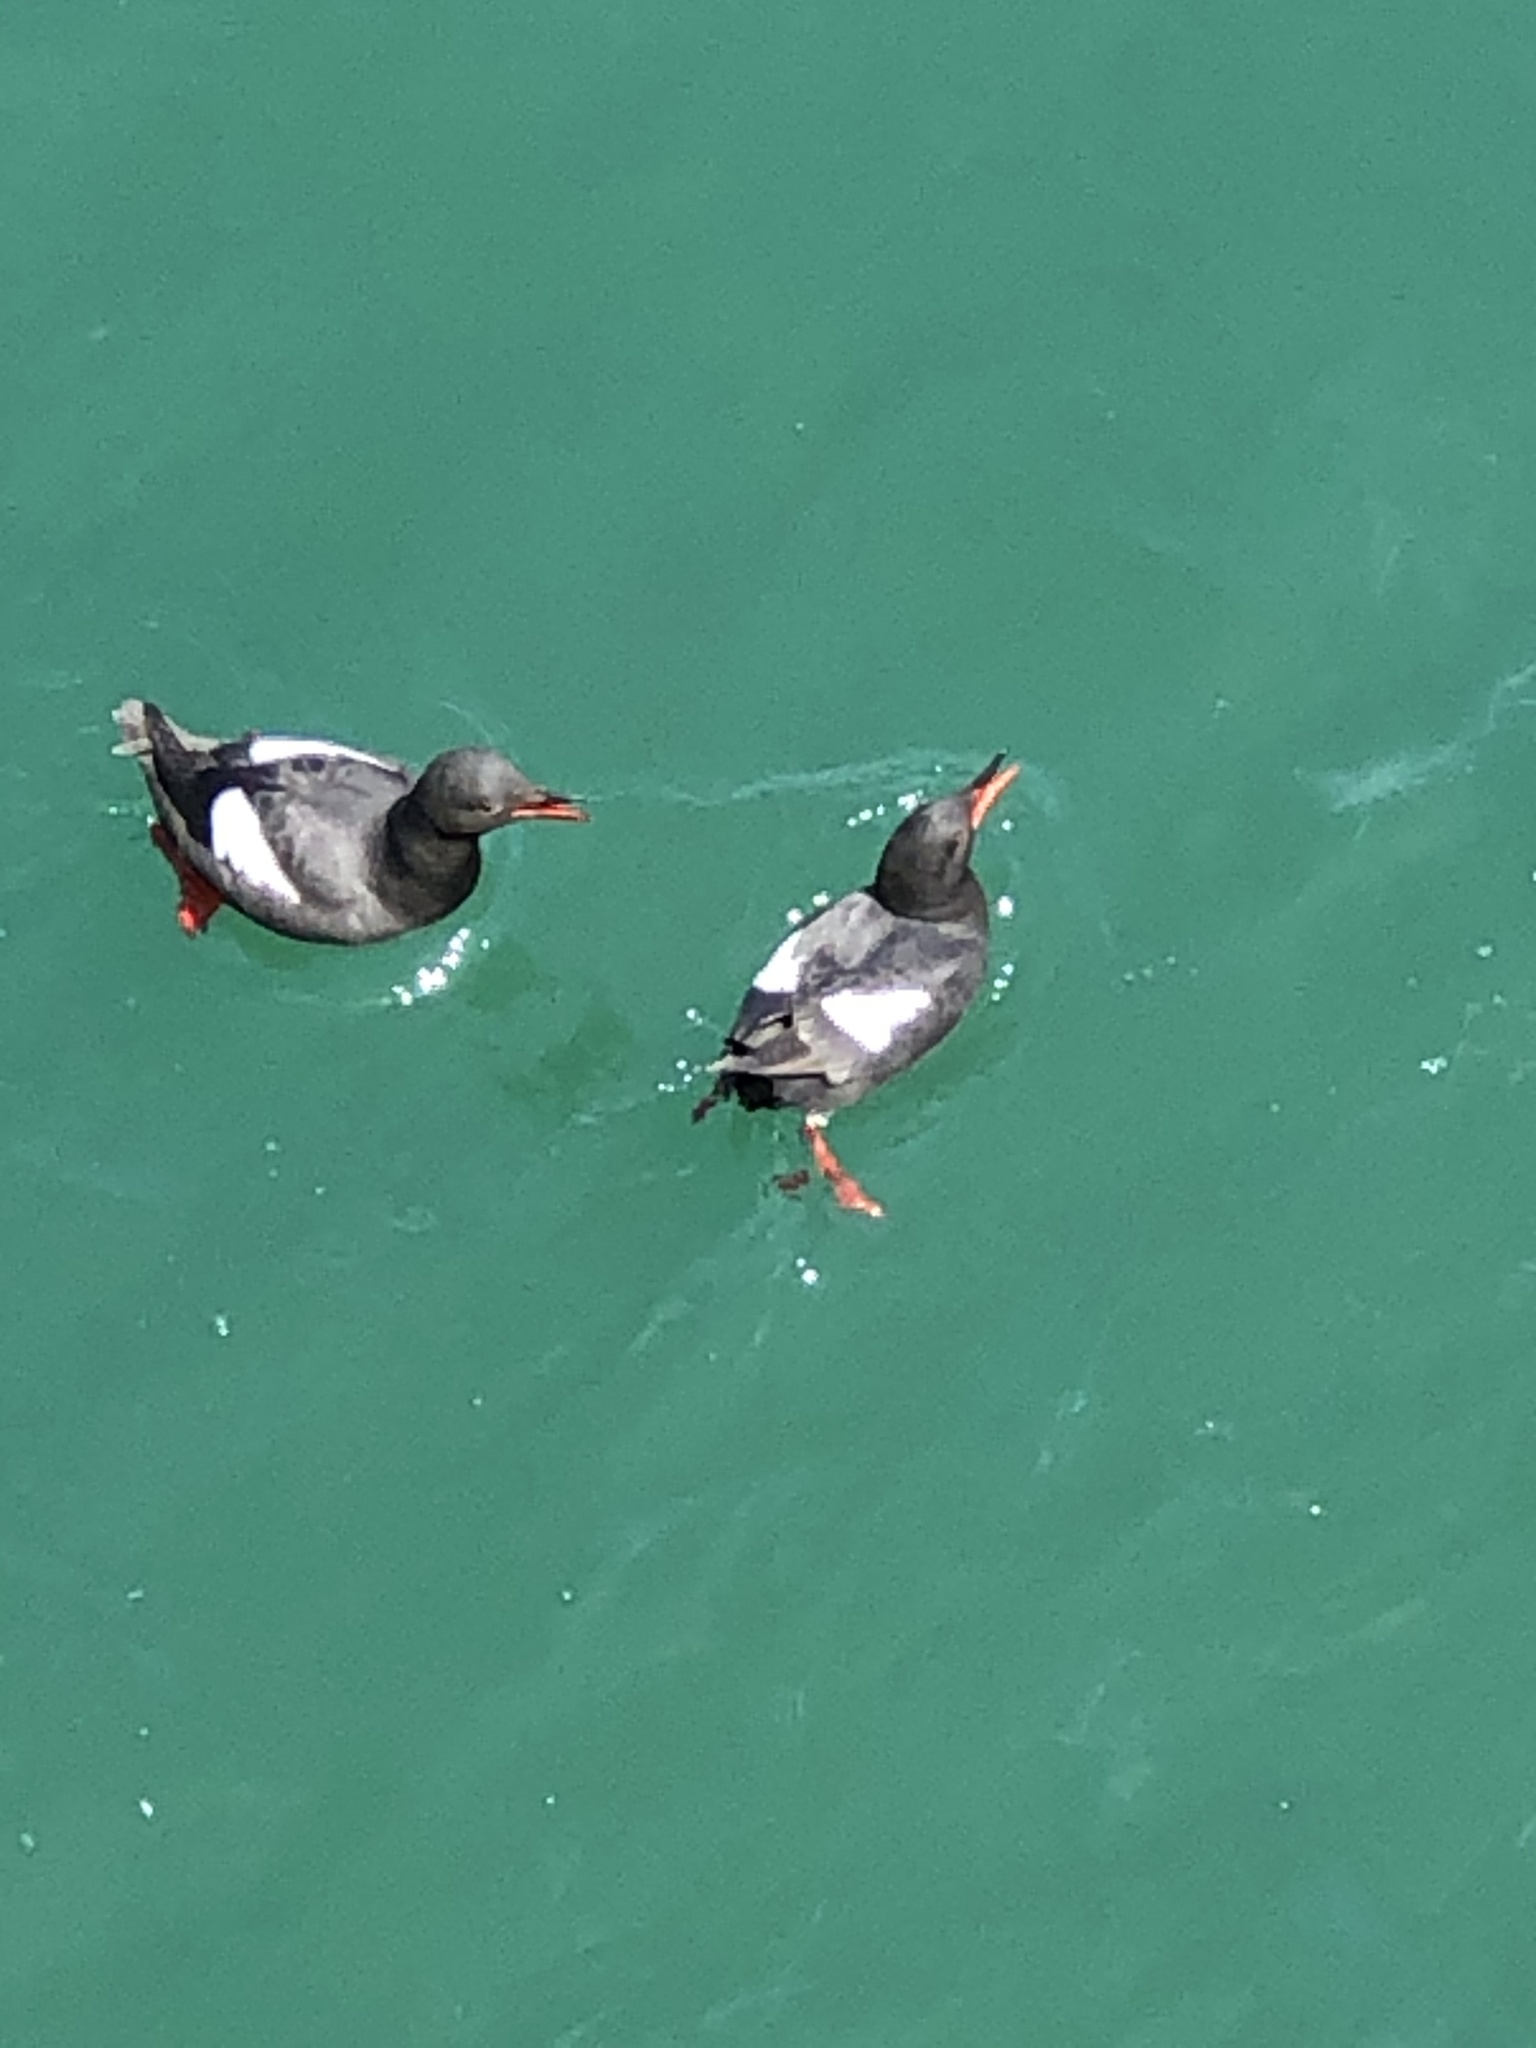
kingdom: Animalia
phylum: Chordata
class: Aves
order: Charadriiformes
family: Alcidae
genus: Cepphus
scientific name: Cepphus columba
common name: Pigeon guillemot
